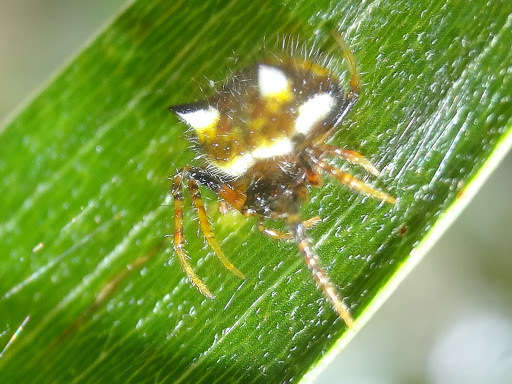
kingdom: Animalia
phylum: Arthropoda
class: Arachnida
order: Araneae
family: Araneidae
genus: Poecilopachys
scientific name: Poecilopachys australasia
